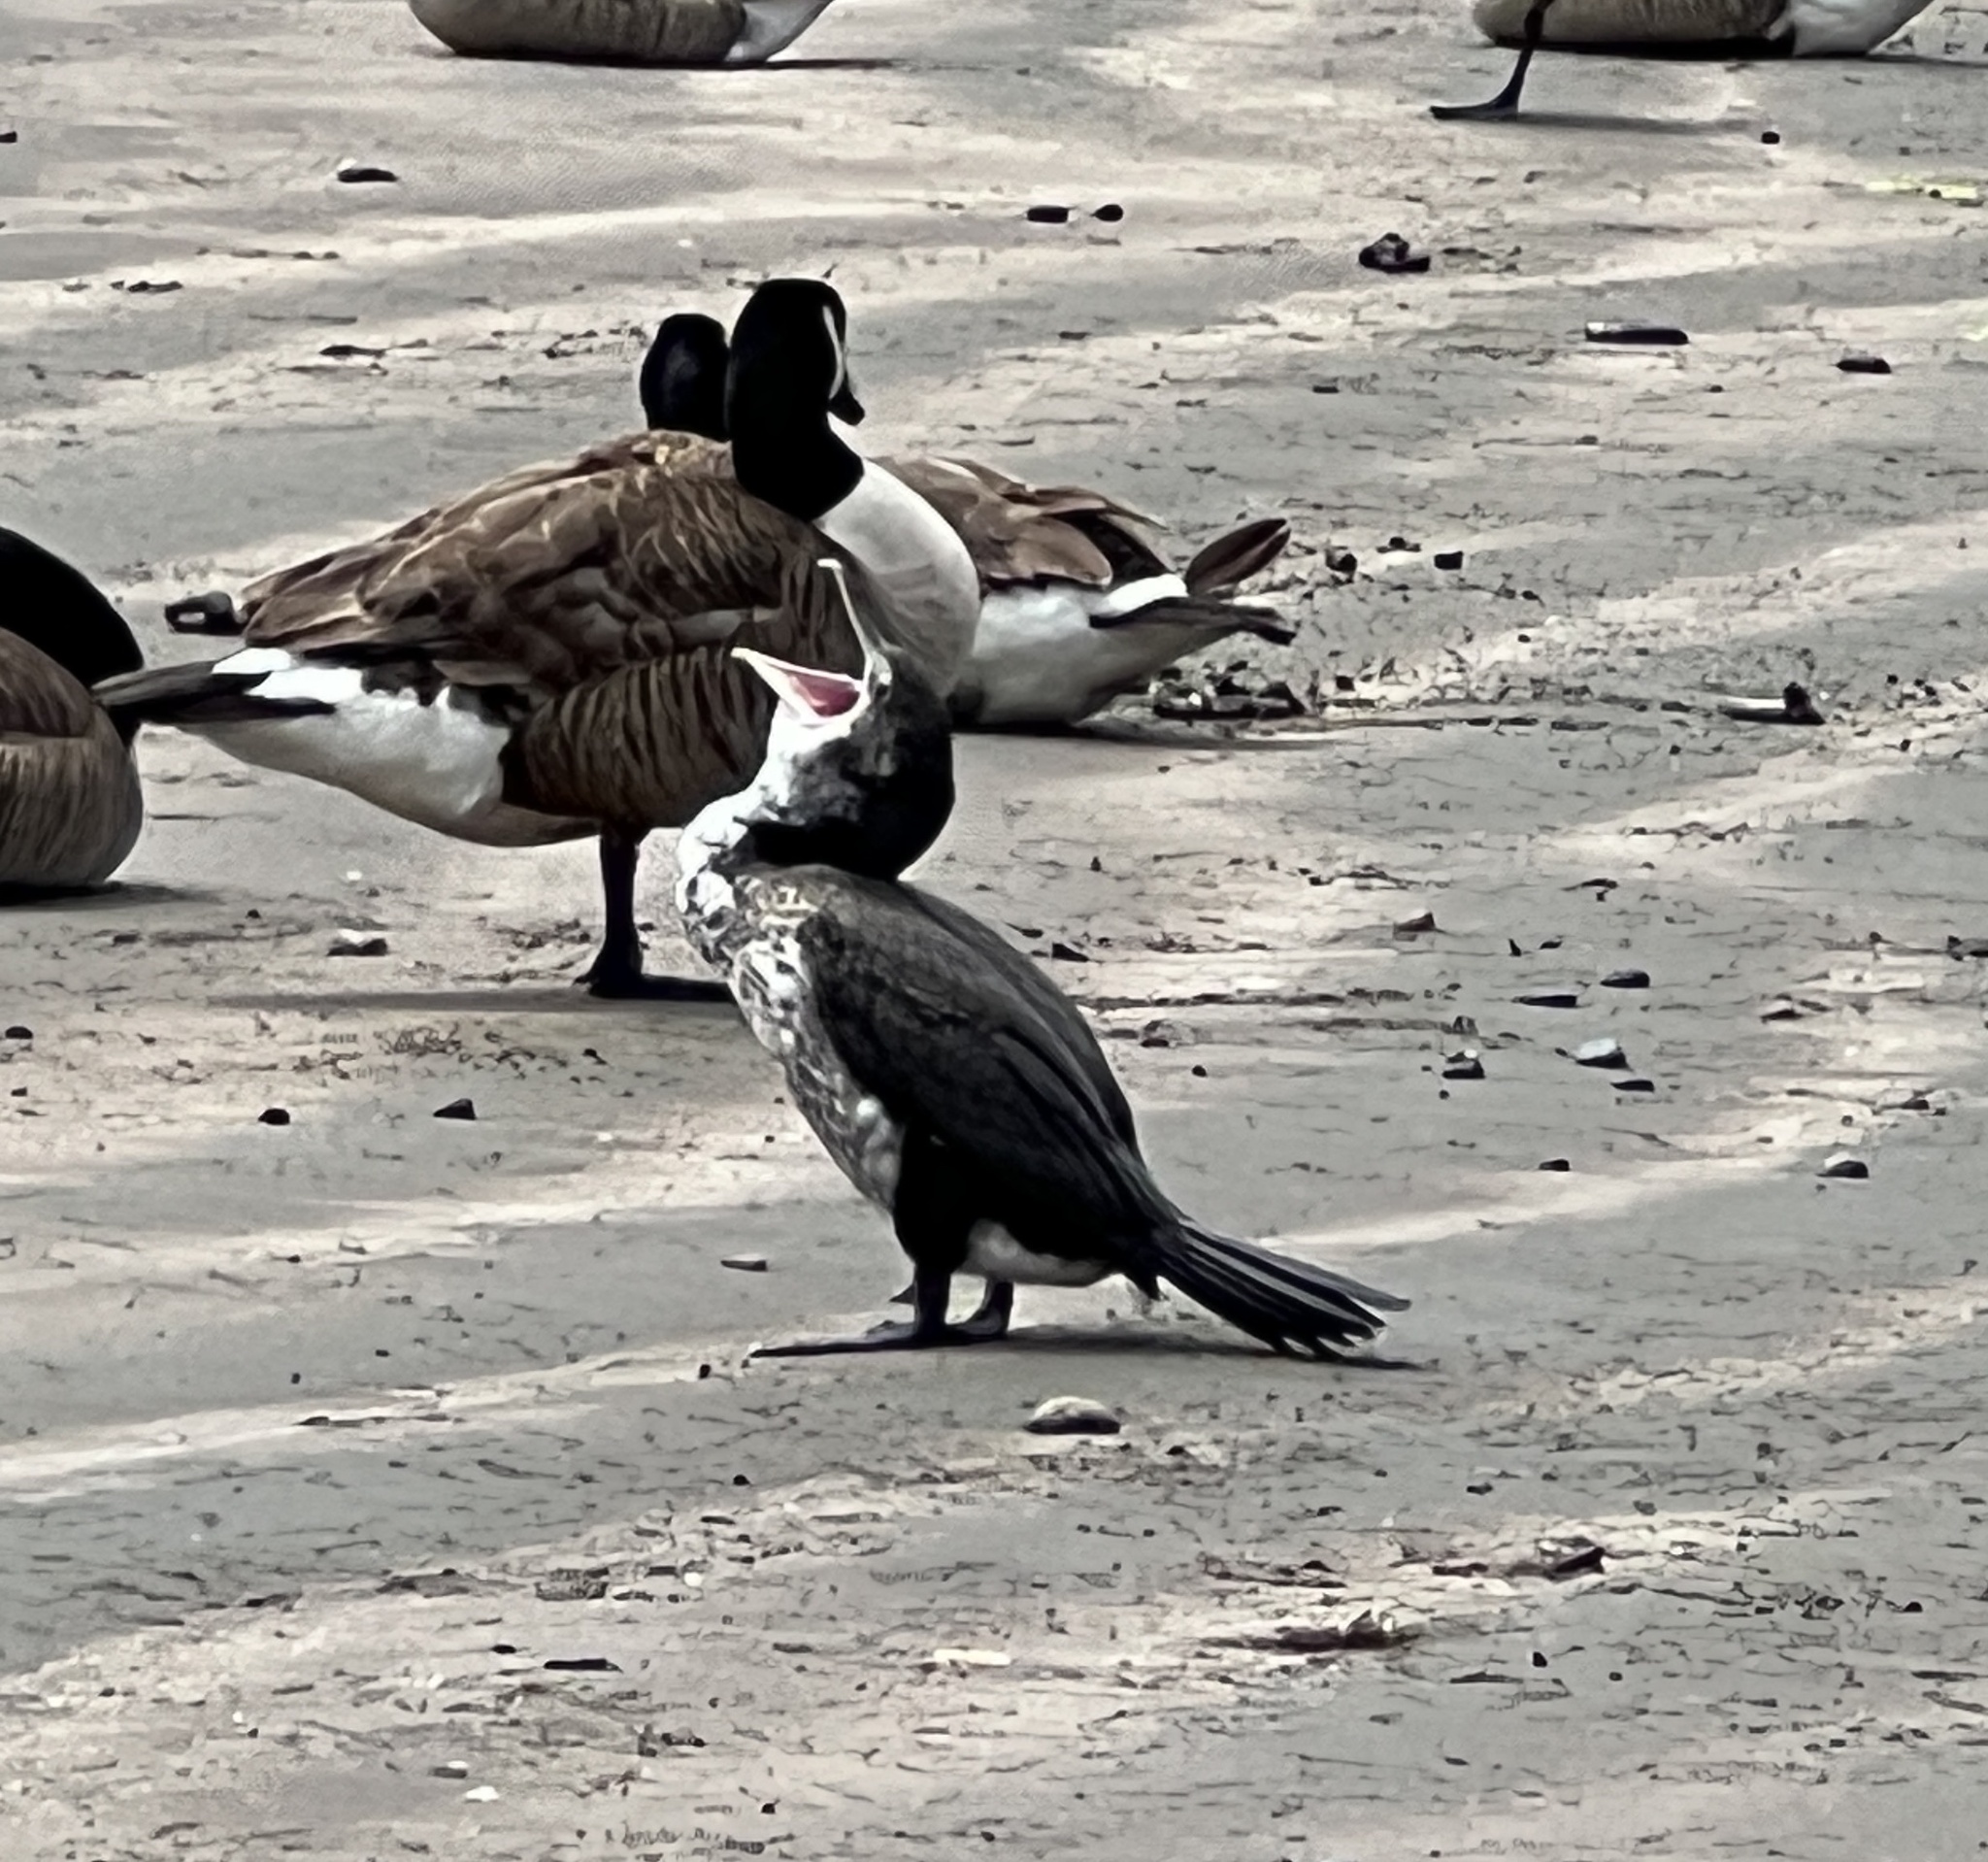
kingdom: Animalia
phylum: Chordata
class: Aves
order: Suliformes
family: Phalacrocoracidae
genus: Phalacrocorax
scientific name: Phalacrocorax varius
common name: Pied cormorant
